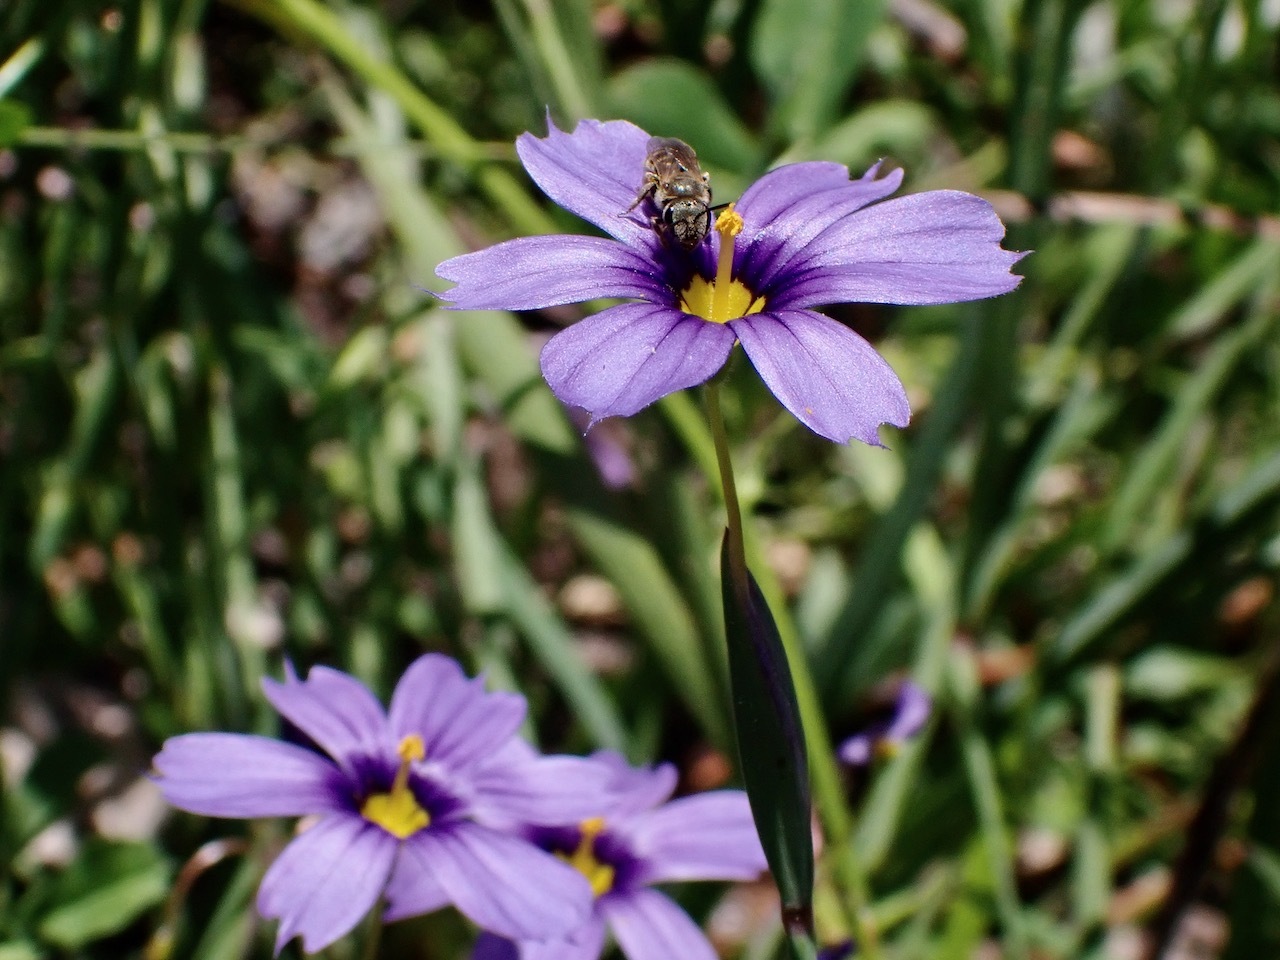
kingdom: Animalia
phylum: Arthropoda
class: Insecta
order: Hymenoptera
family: Halictidae
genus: Halictus
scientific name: Halictus tripartitus
